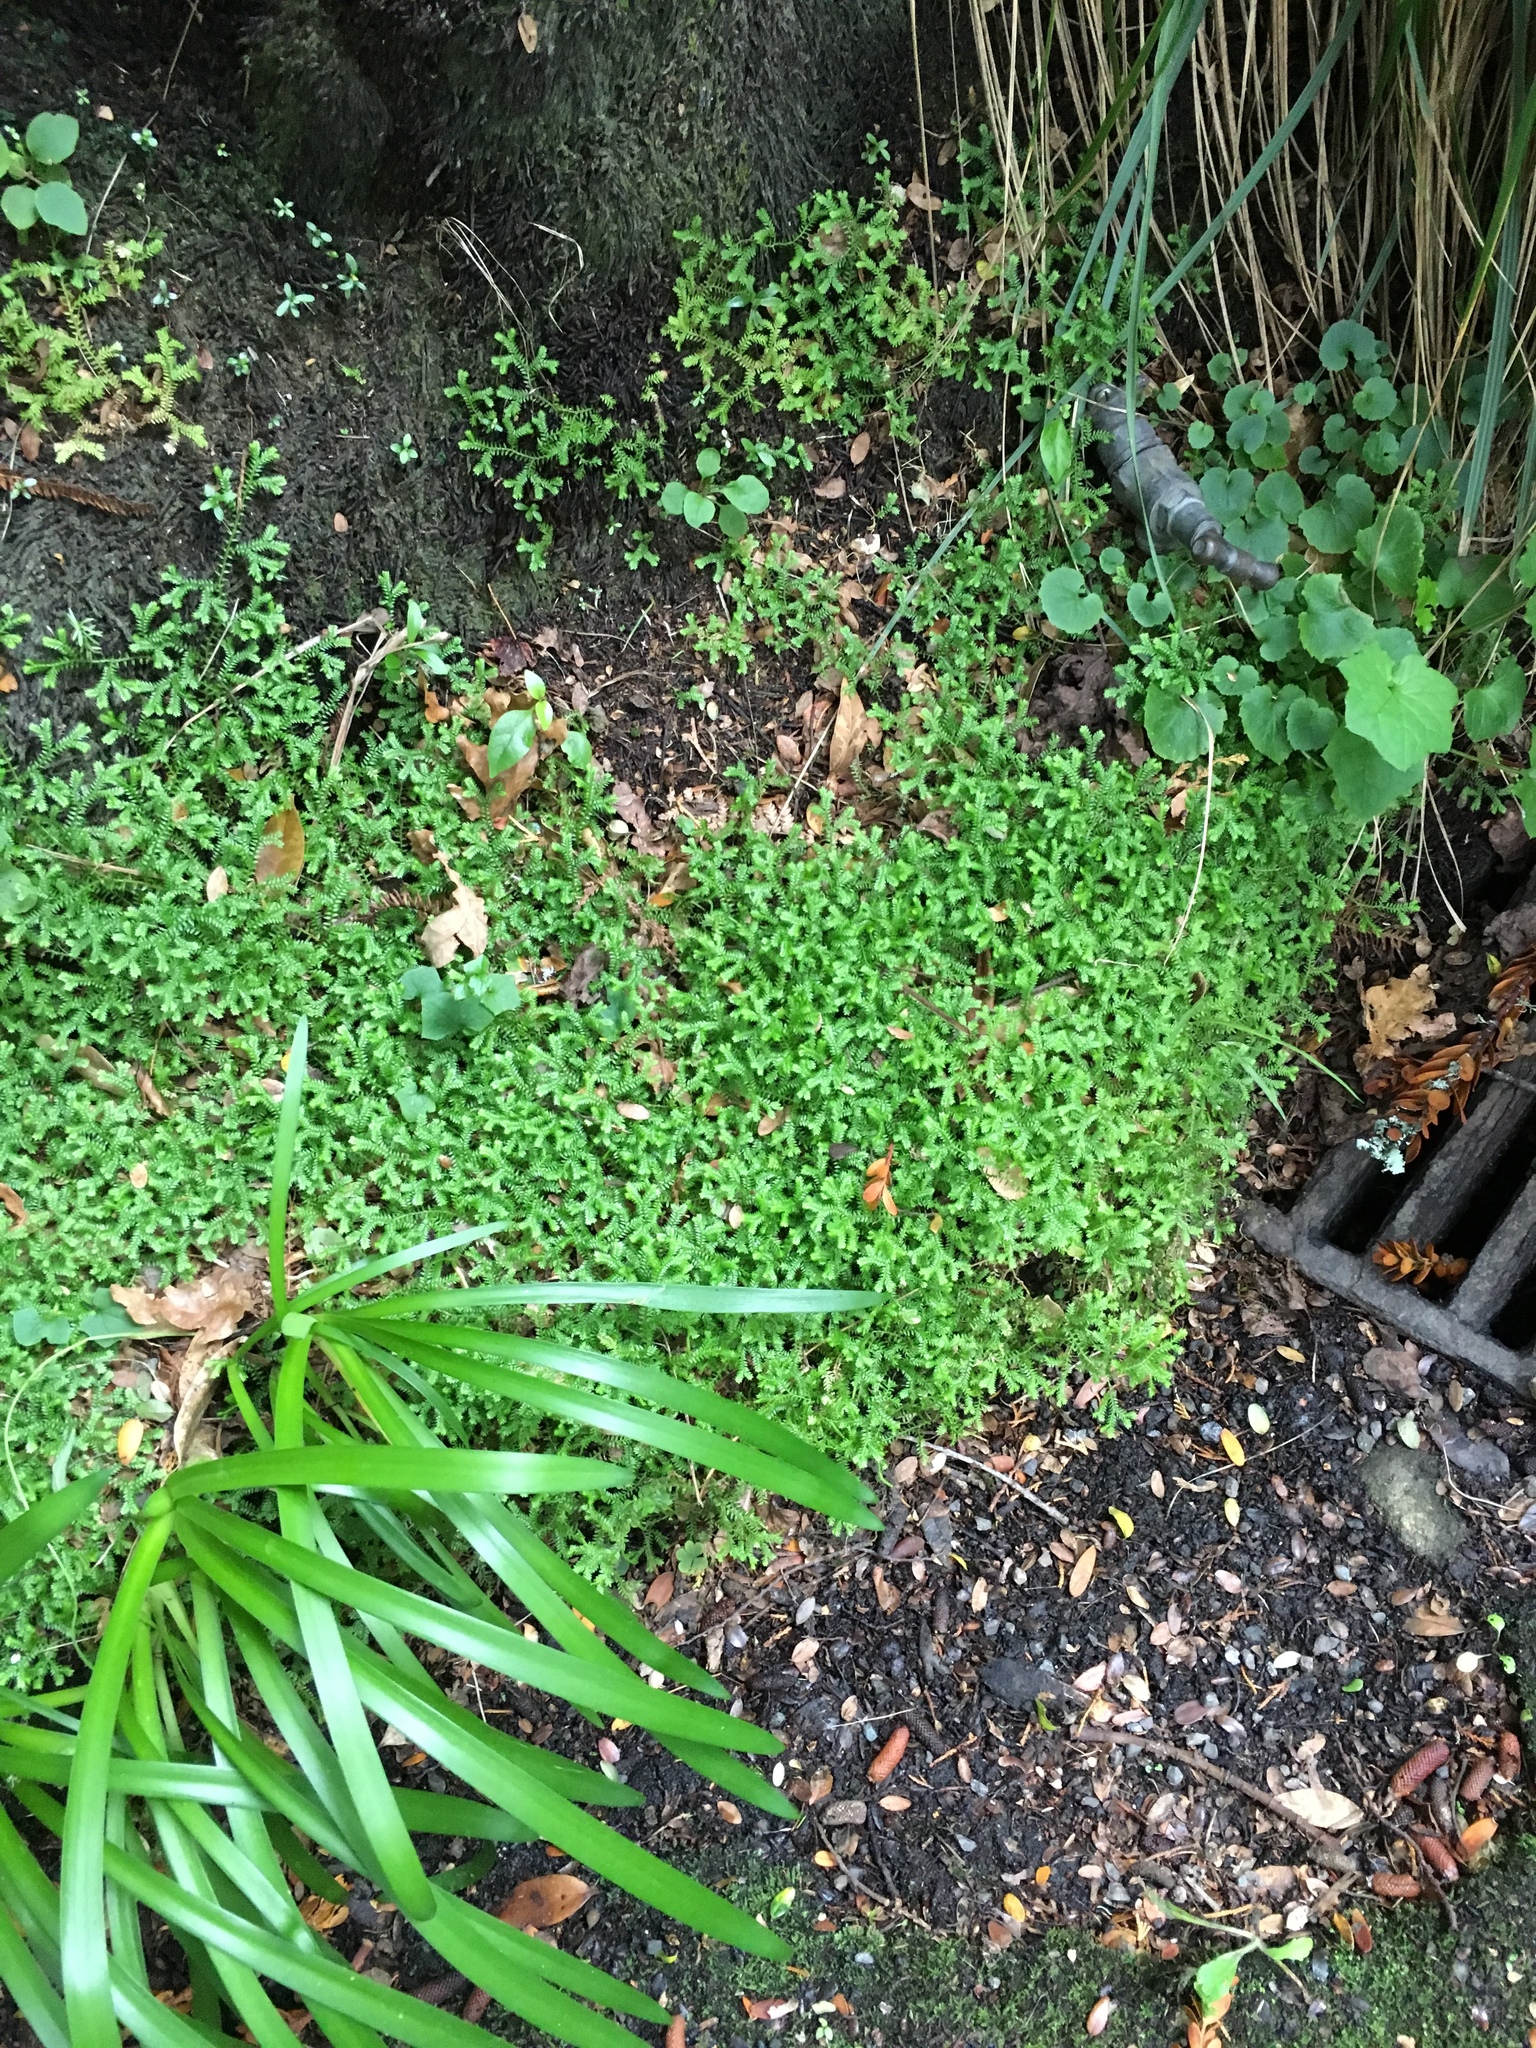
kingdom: Plantae
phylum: Tracheophyta
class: Lycopodiopsida
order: Selaginellales
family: Selaginellaceae
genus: Selaginella
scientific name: Selaginella kraussiana
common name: Krauss' spikemoss
